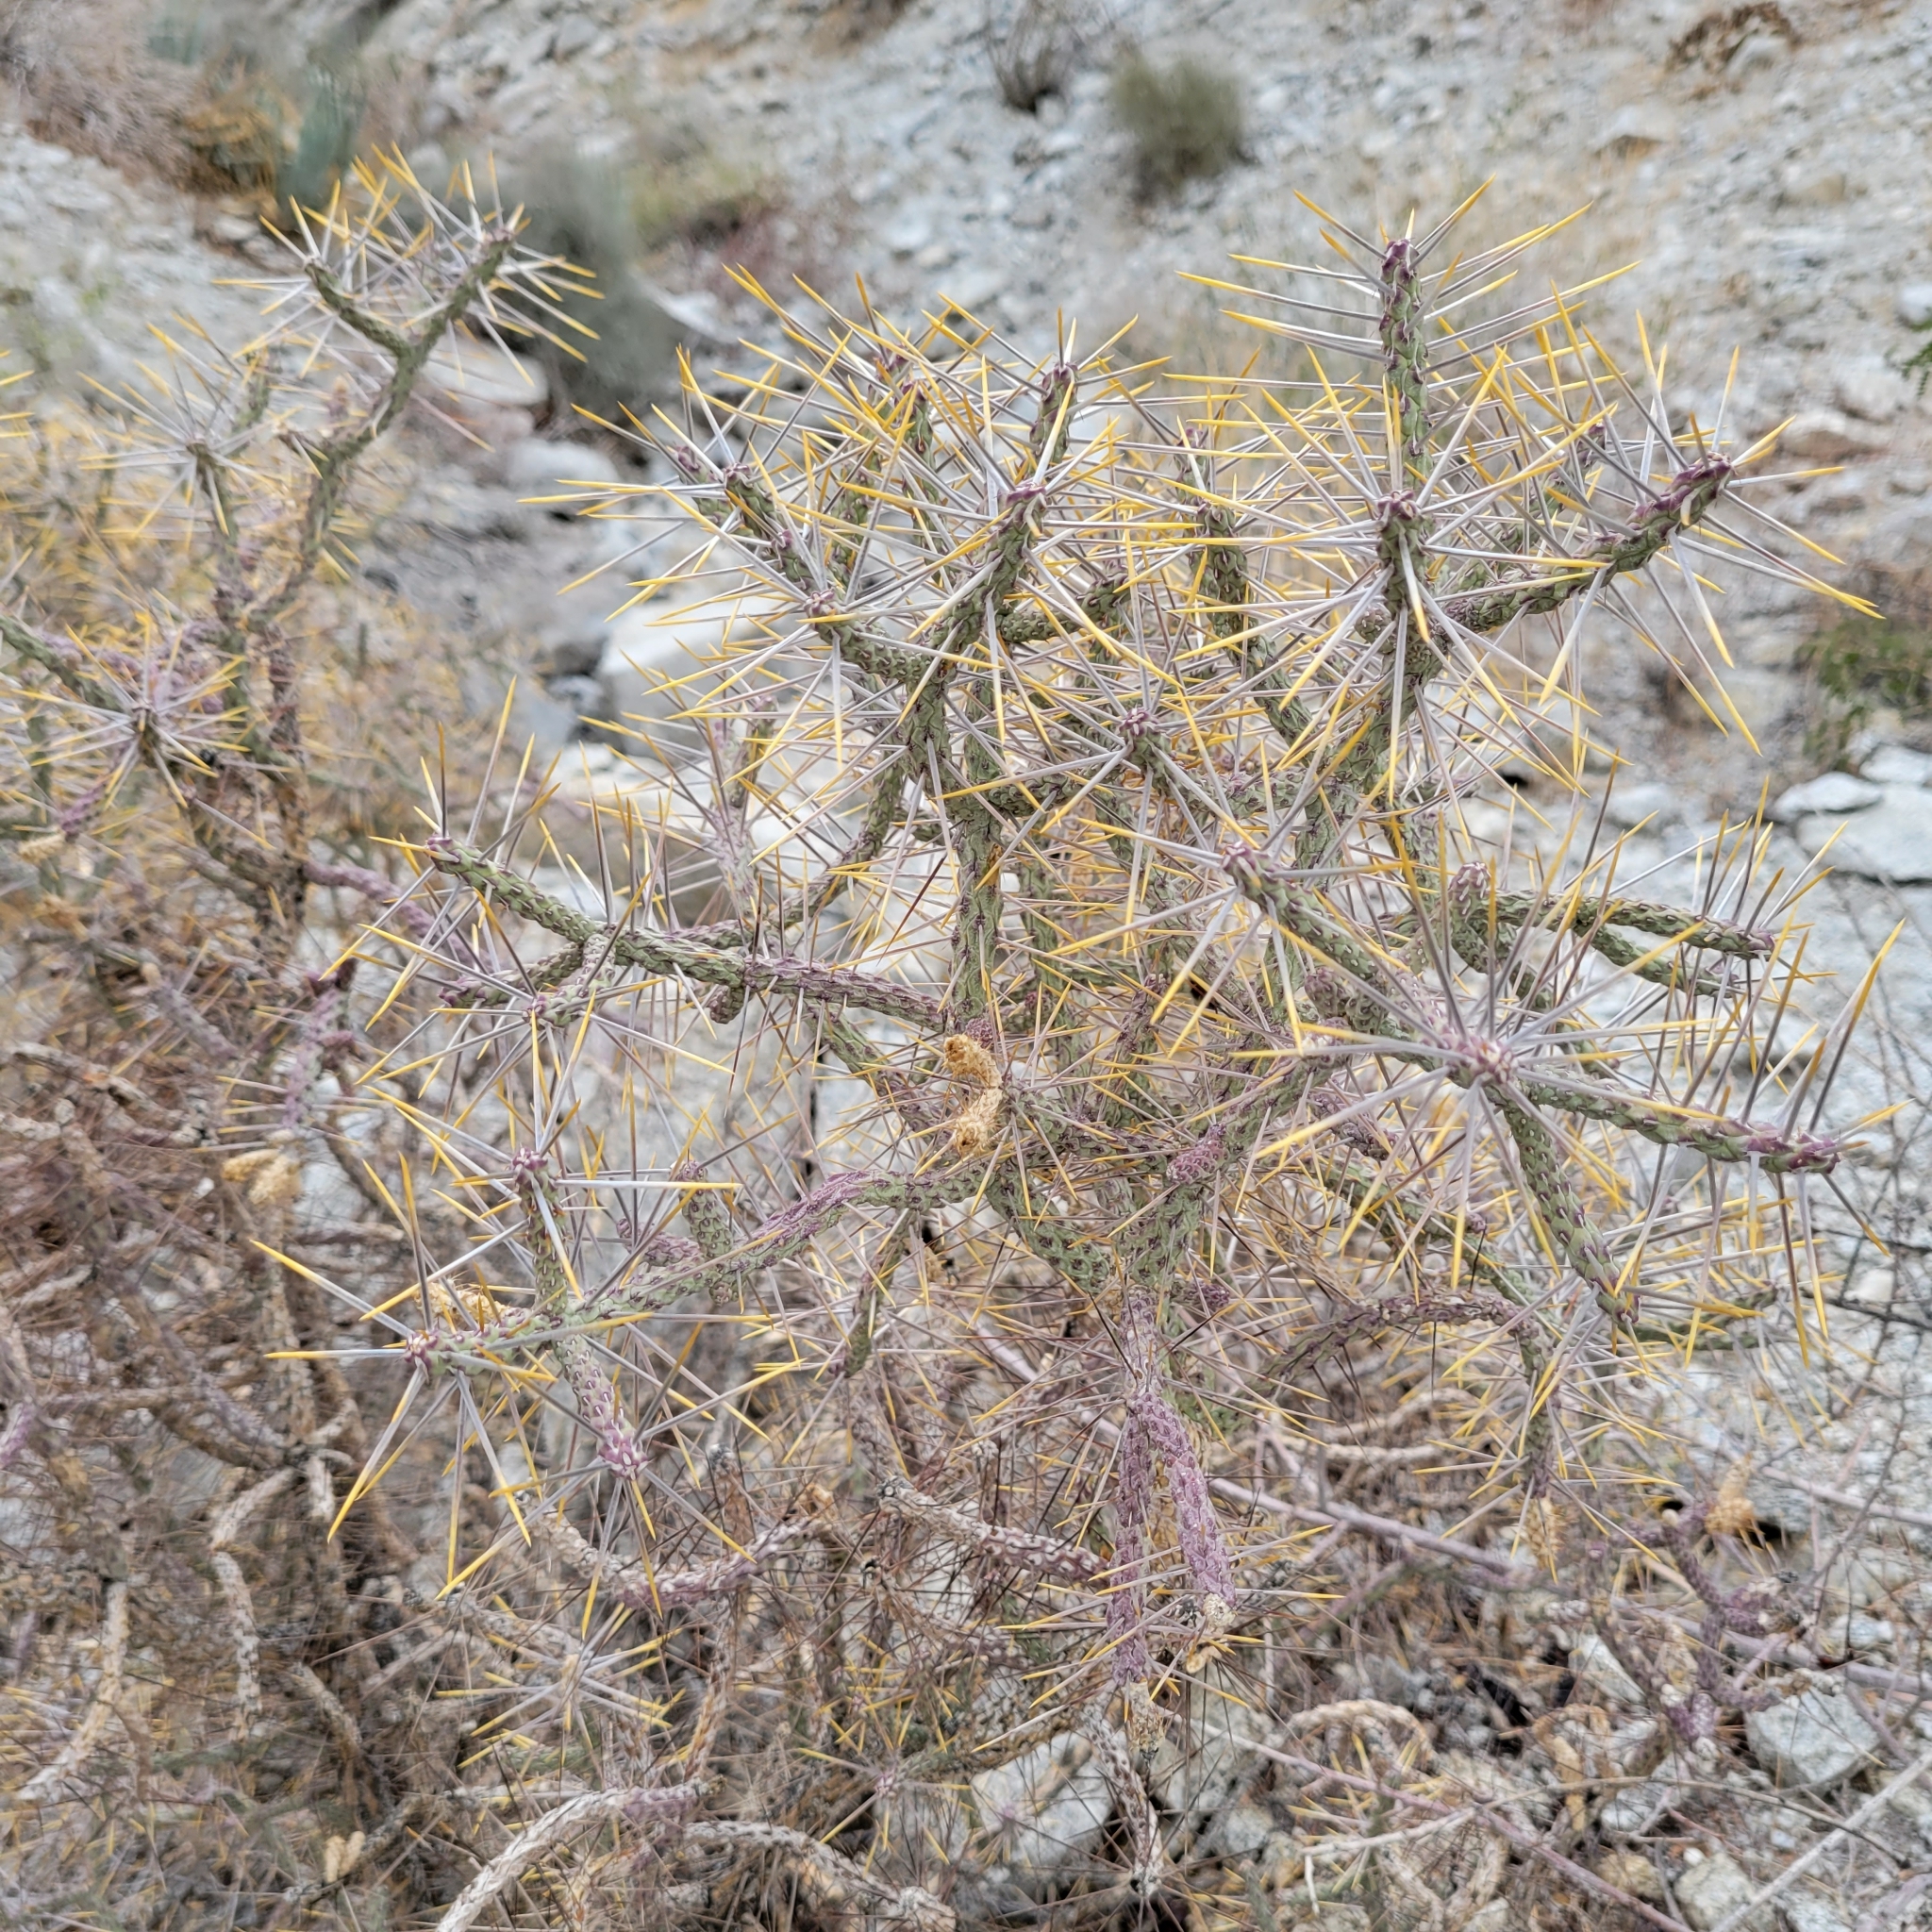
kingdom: Plantae
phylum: Tracheophyta
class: Magnoliopsida
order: Caryophyllales
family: Cactaceae
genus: Cylindropuntia
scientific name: Cylindropuntia ramosissima
